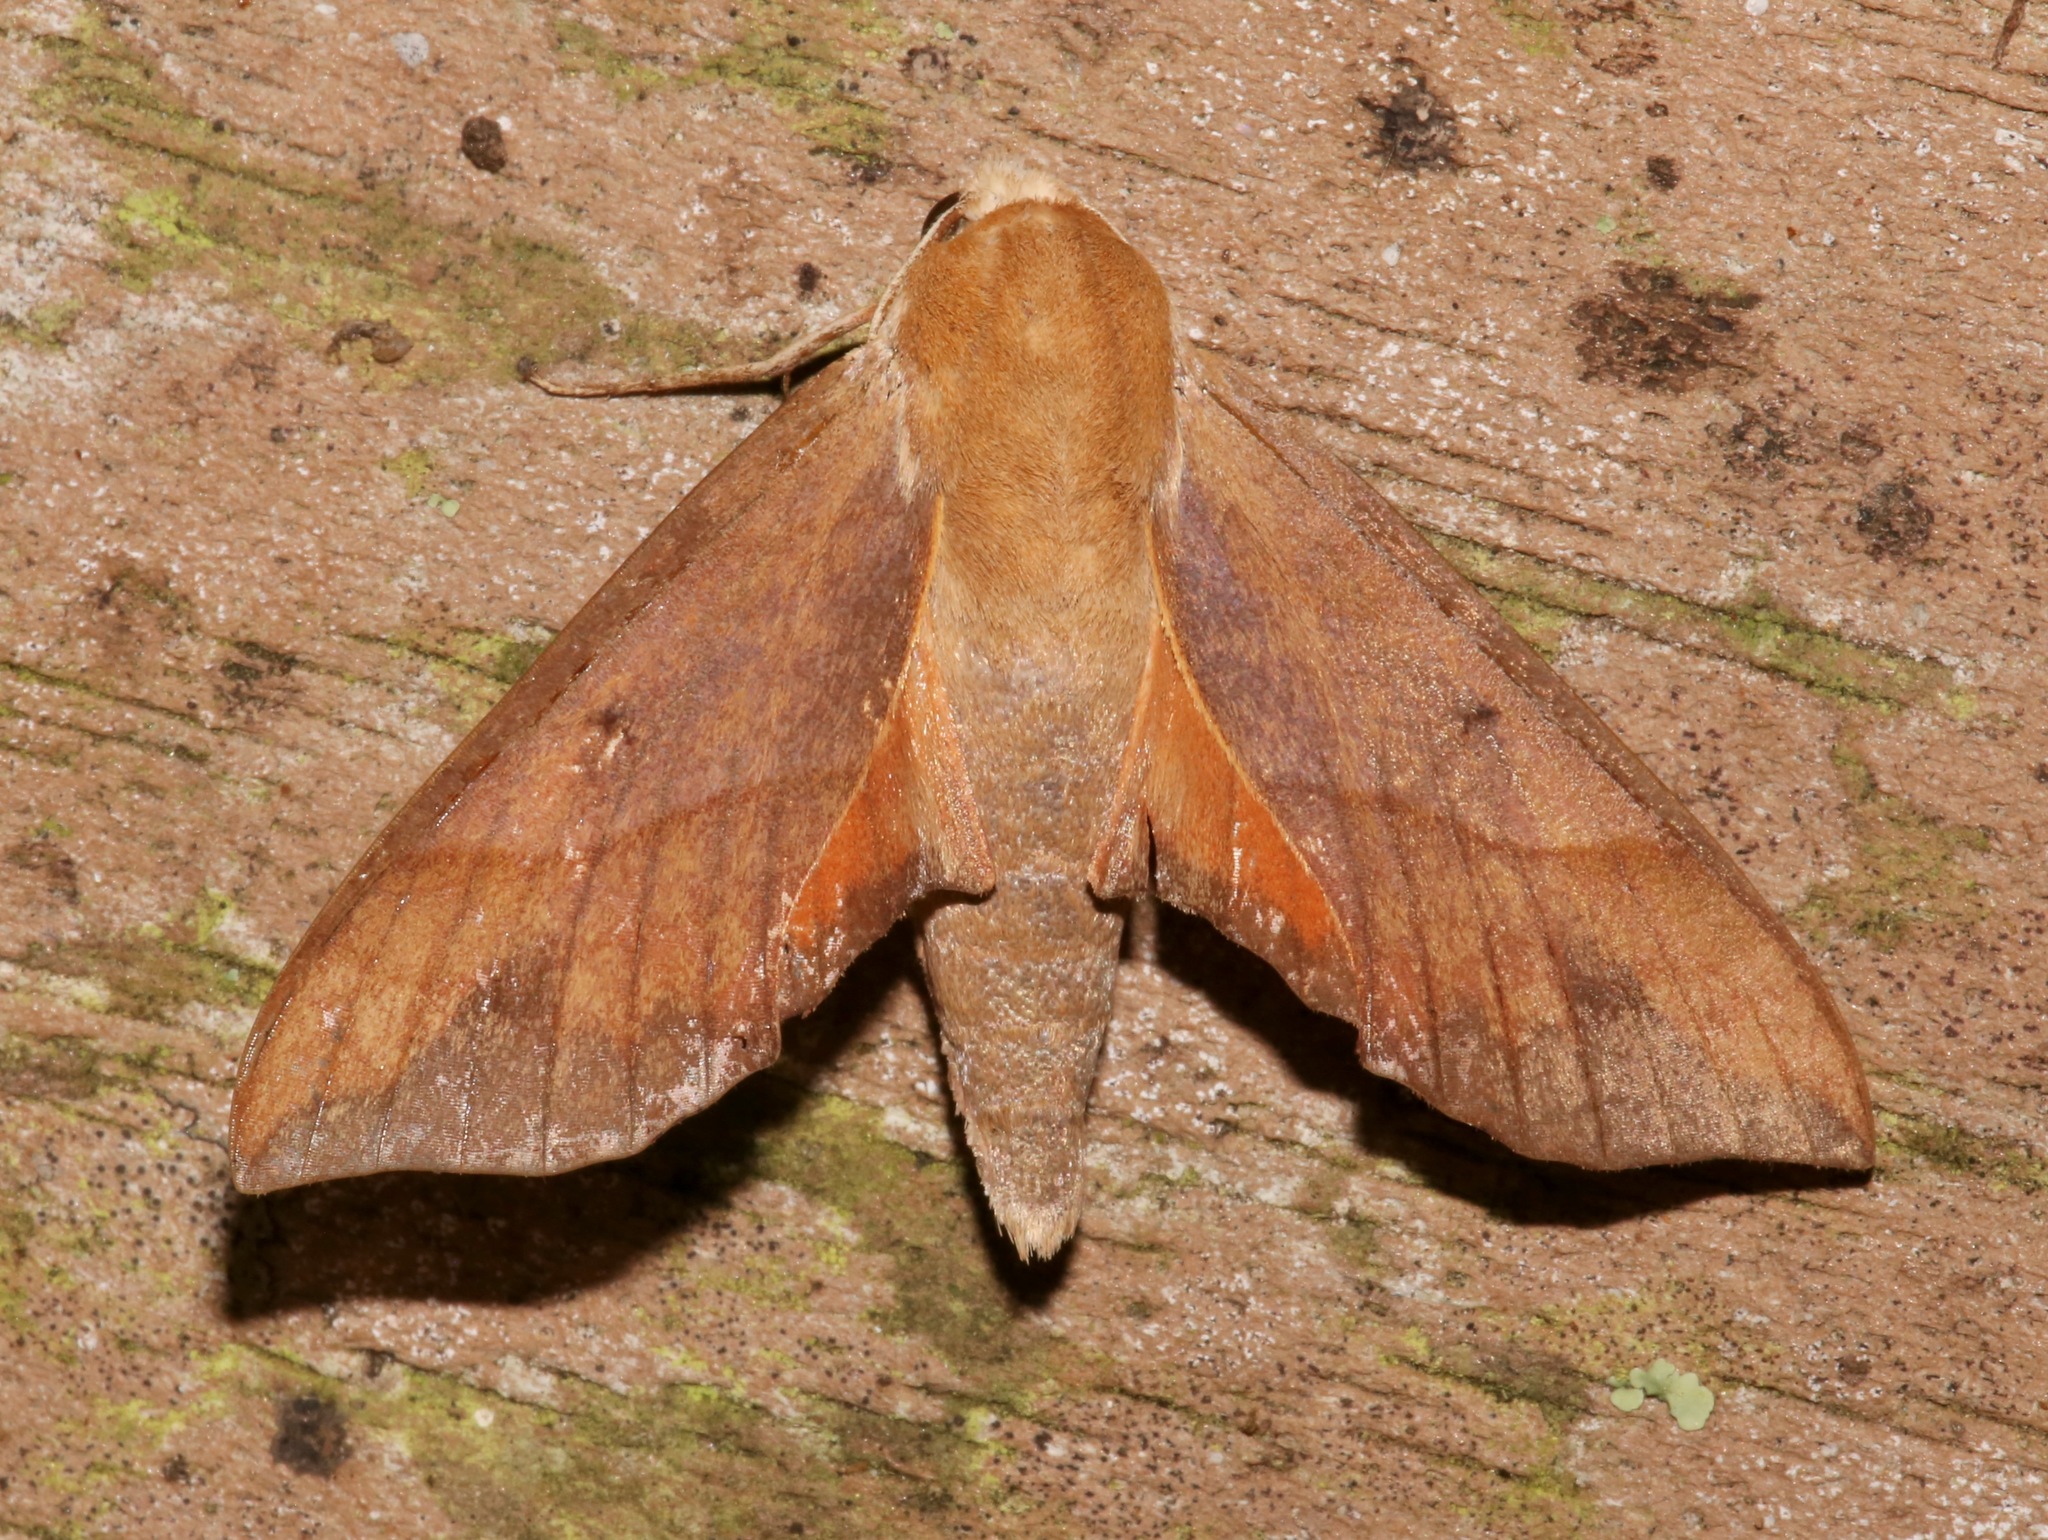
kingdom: Animalia
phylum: Arthropoda
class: Insecta
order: Lepidoptera
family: Sphingidae
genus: Darapsa
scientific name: Darapsa myron
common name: Hog sphinx
